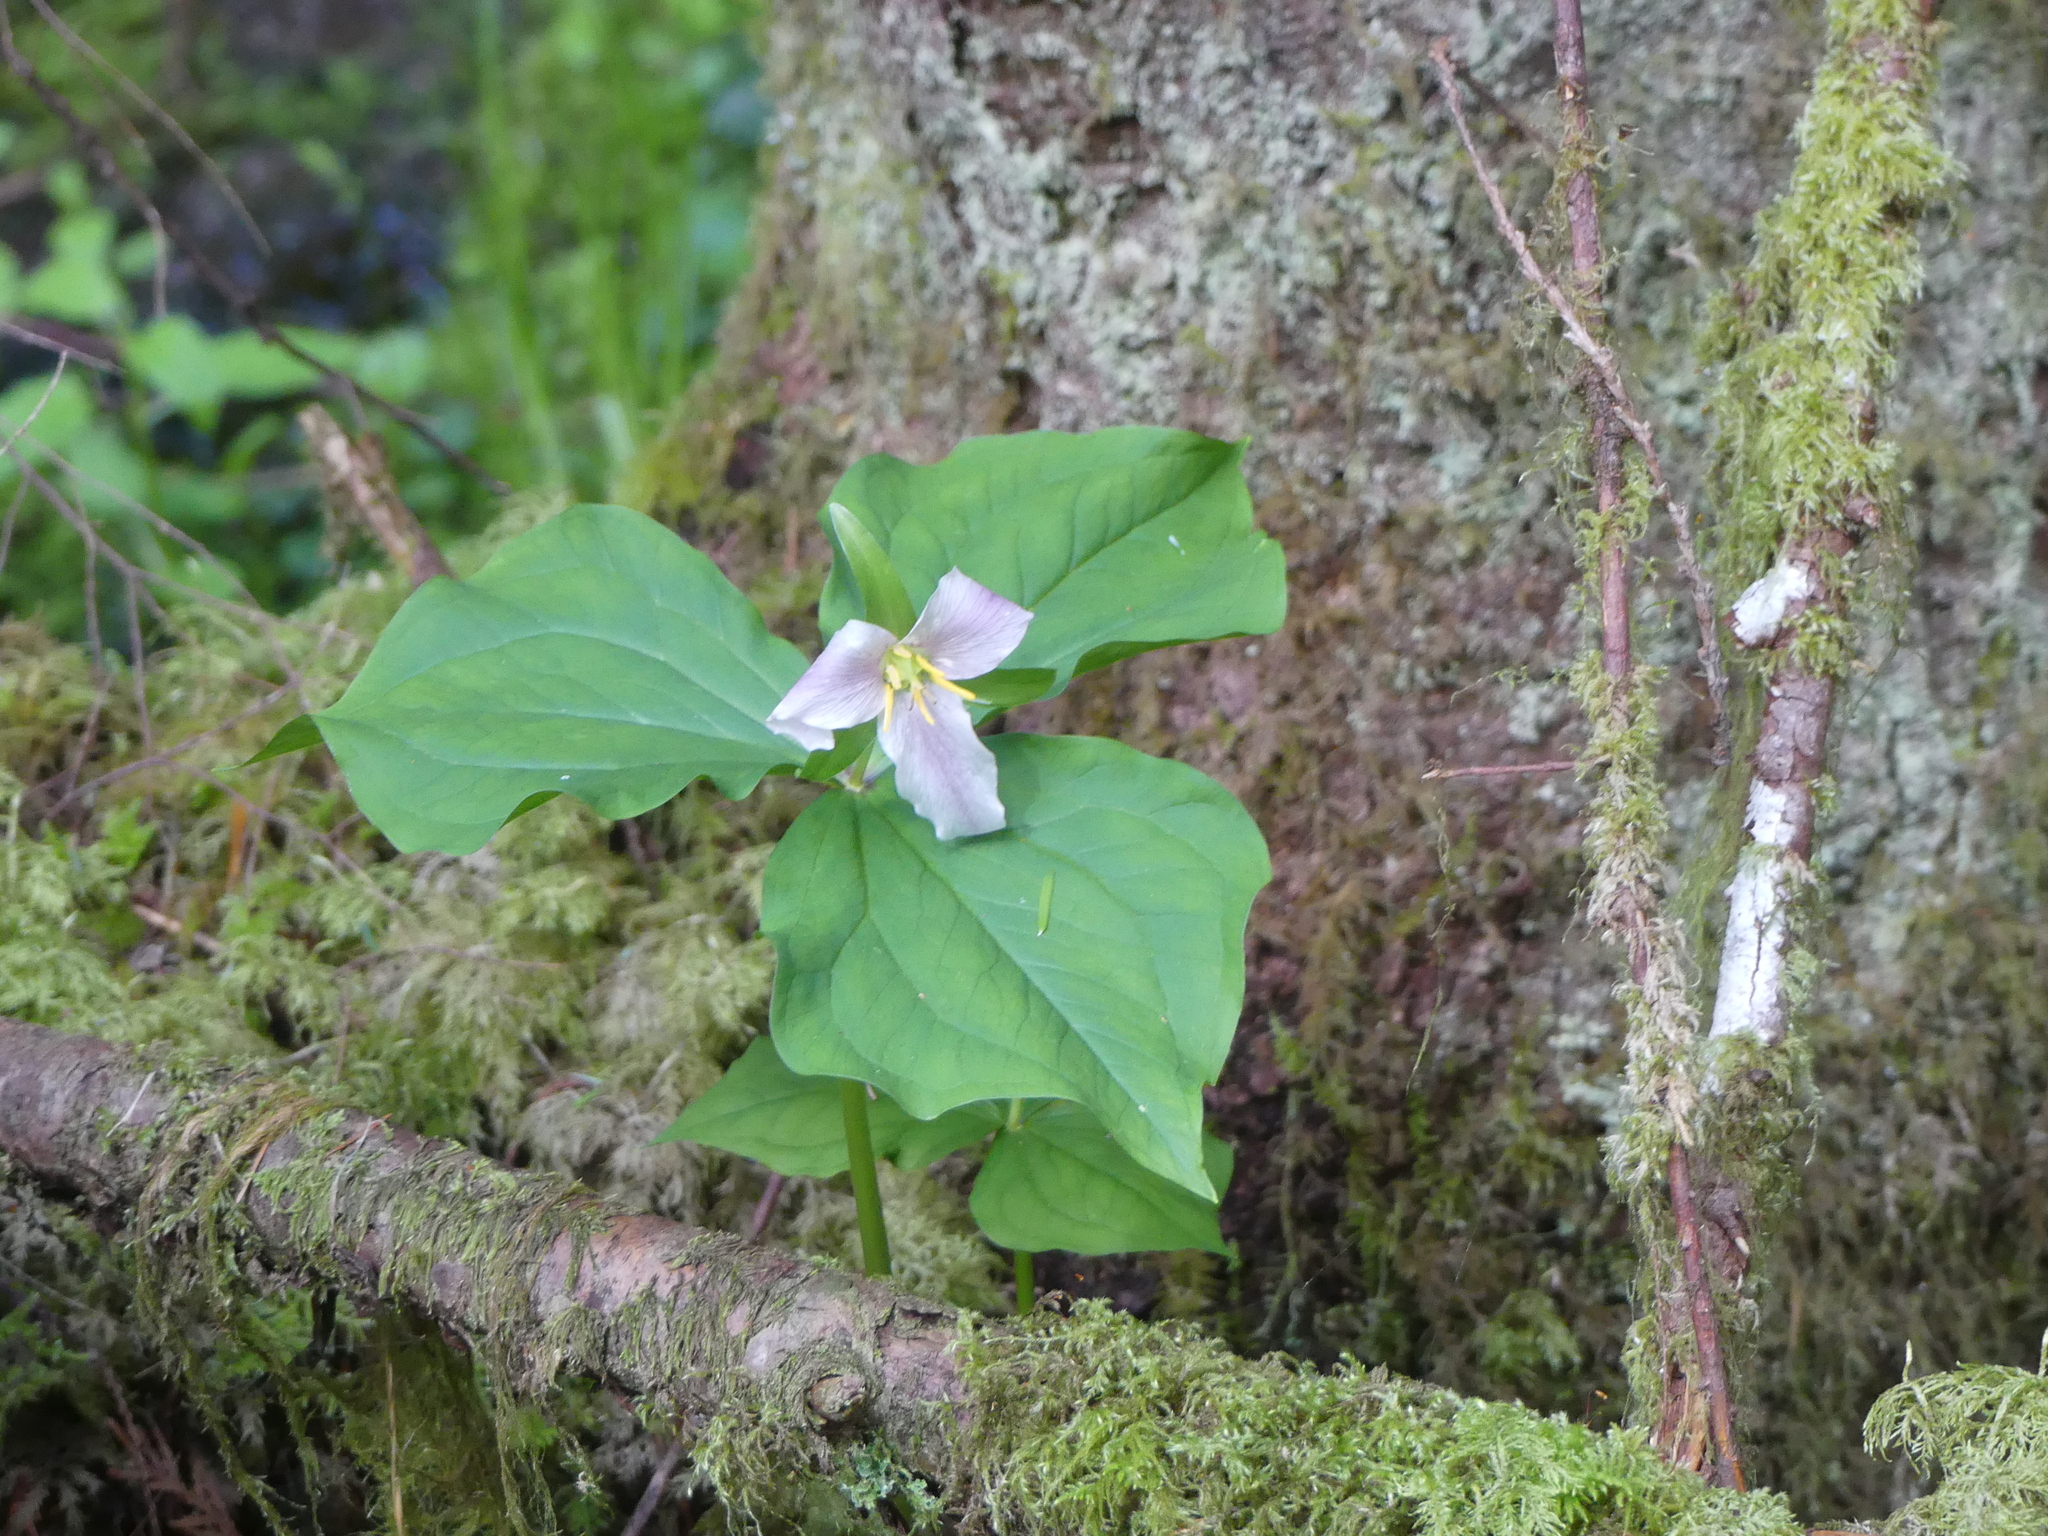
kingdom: Plantae
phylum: Tracheophyta
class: Liliopsida
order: Liliales
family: Melanthiaceae
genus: Trillium
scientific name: Trillium ovatum
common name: Pacific trillium
